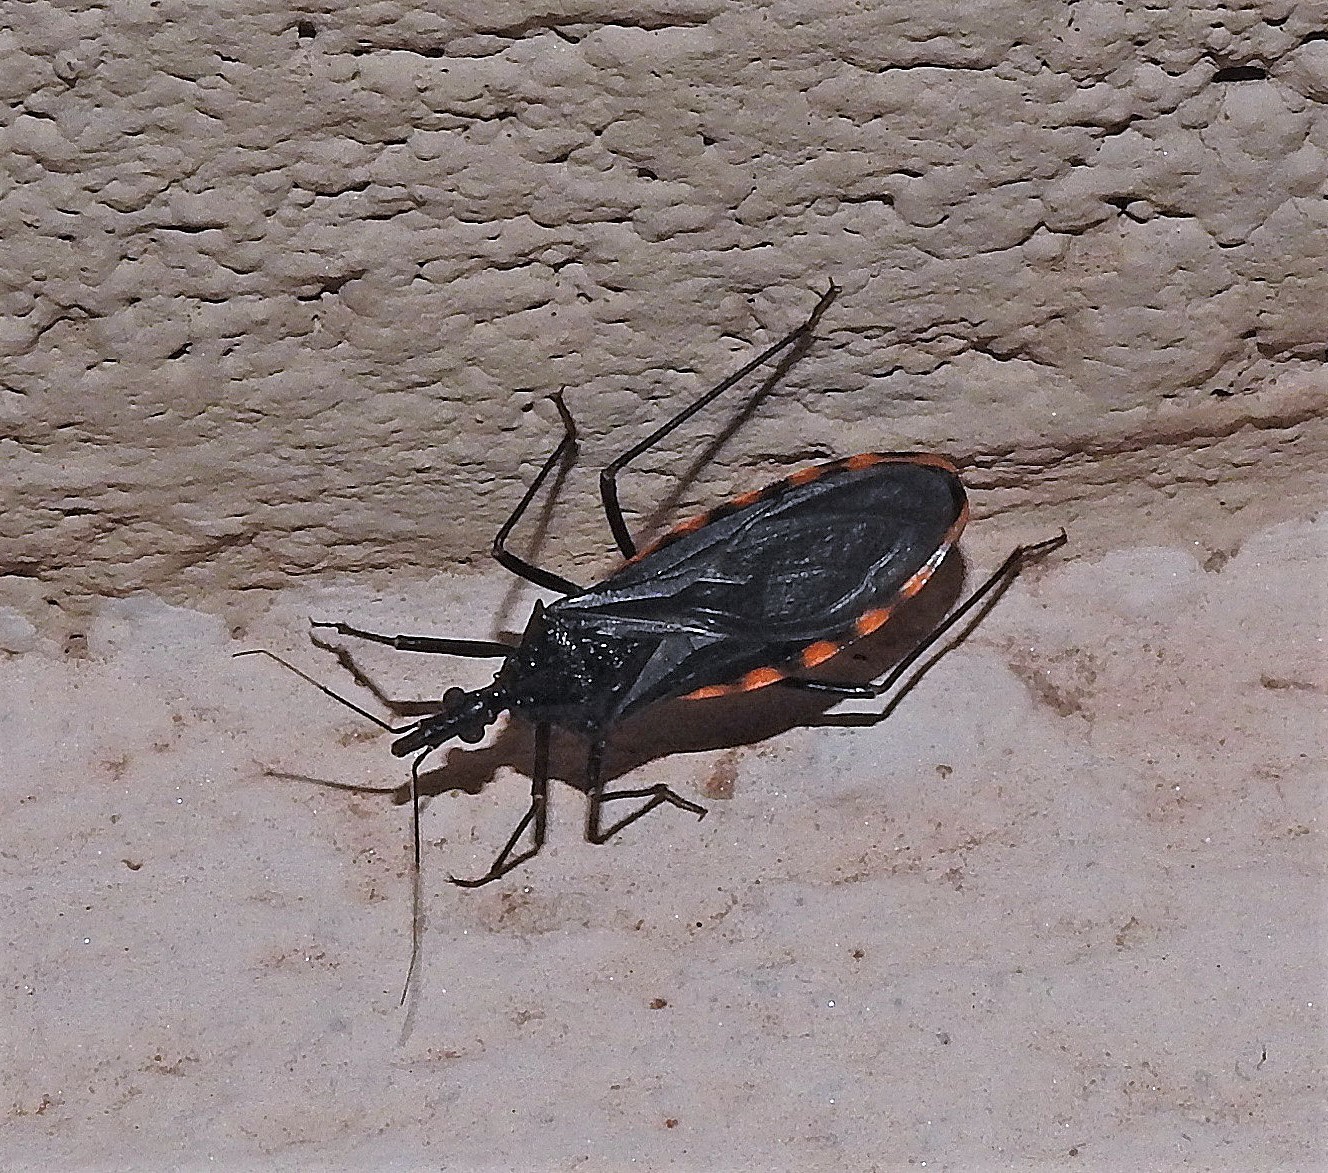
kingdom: Animalia
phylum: Arthropoda
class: Insecta
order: Hemiptera
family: Reduviidae
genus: Mepraia
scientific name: Mepraia eratyrusiformis
